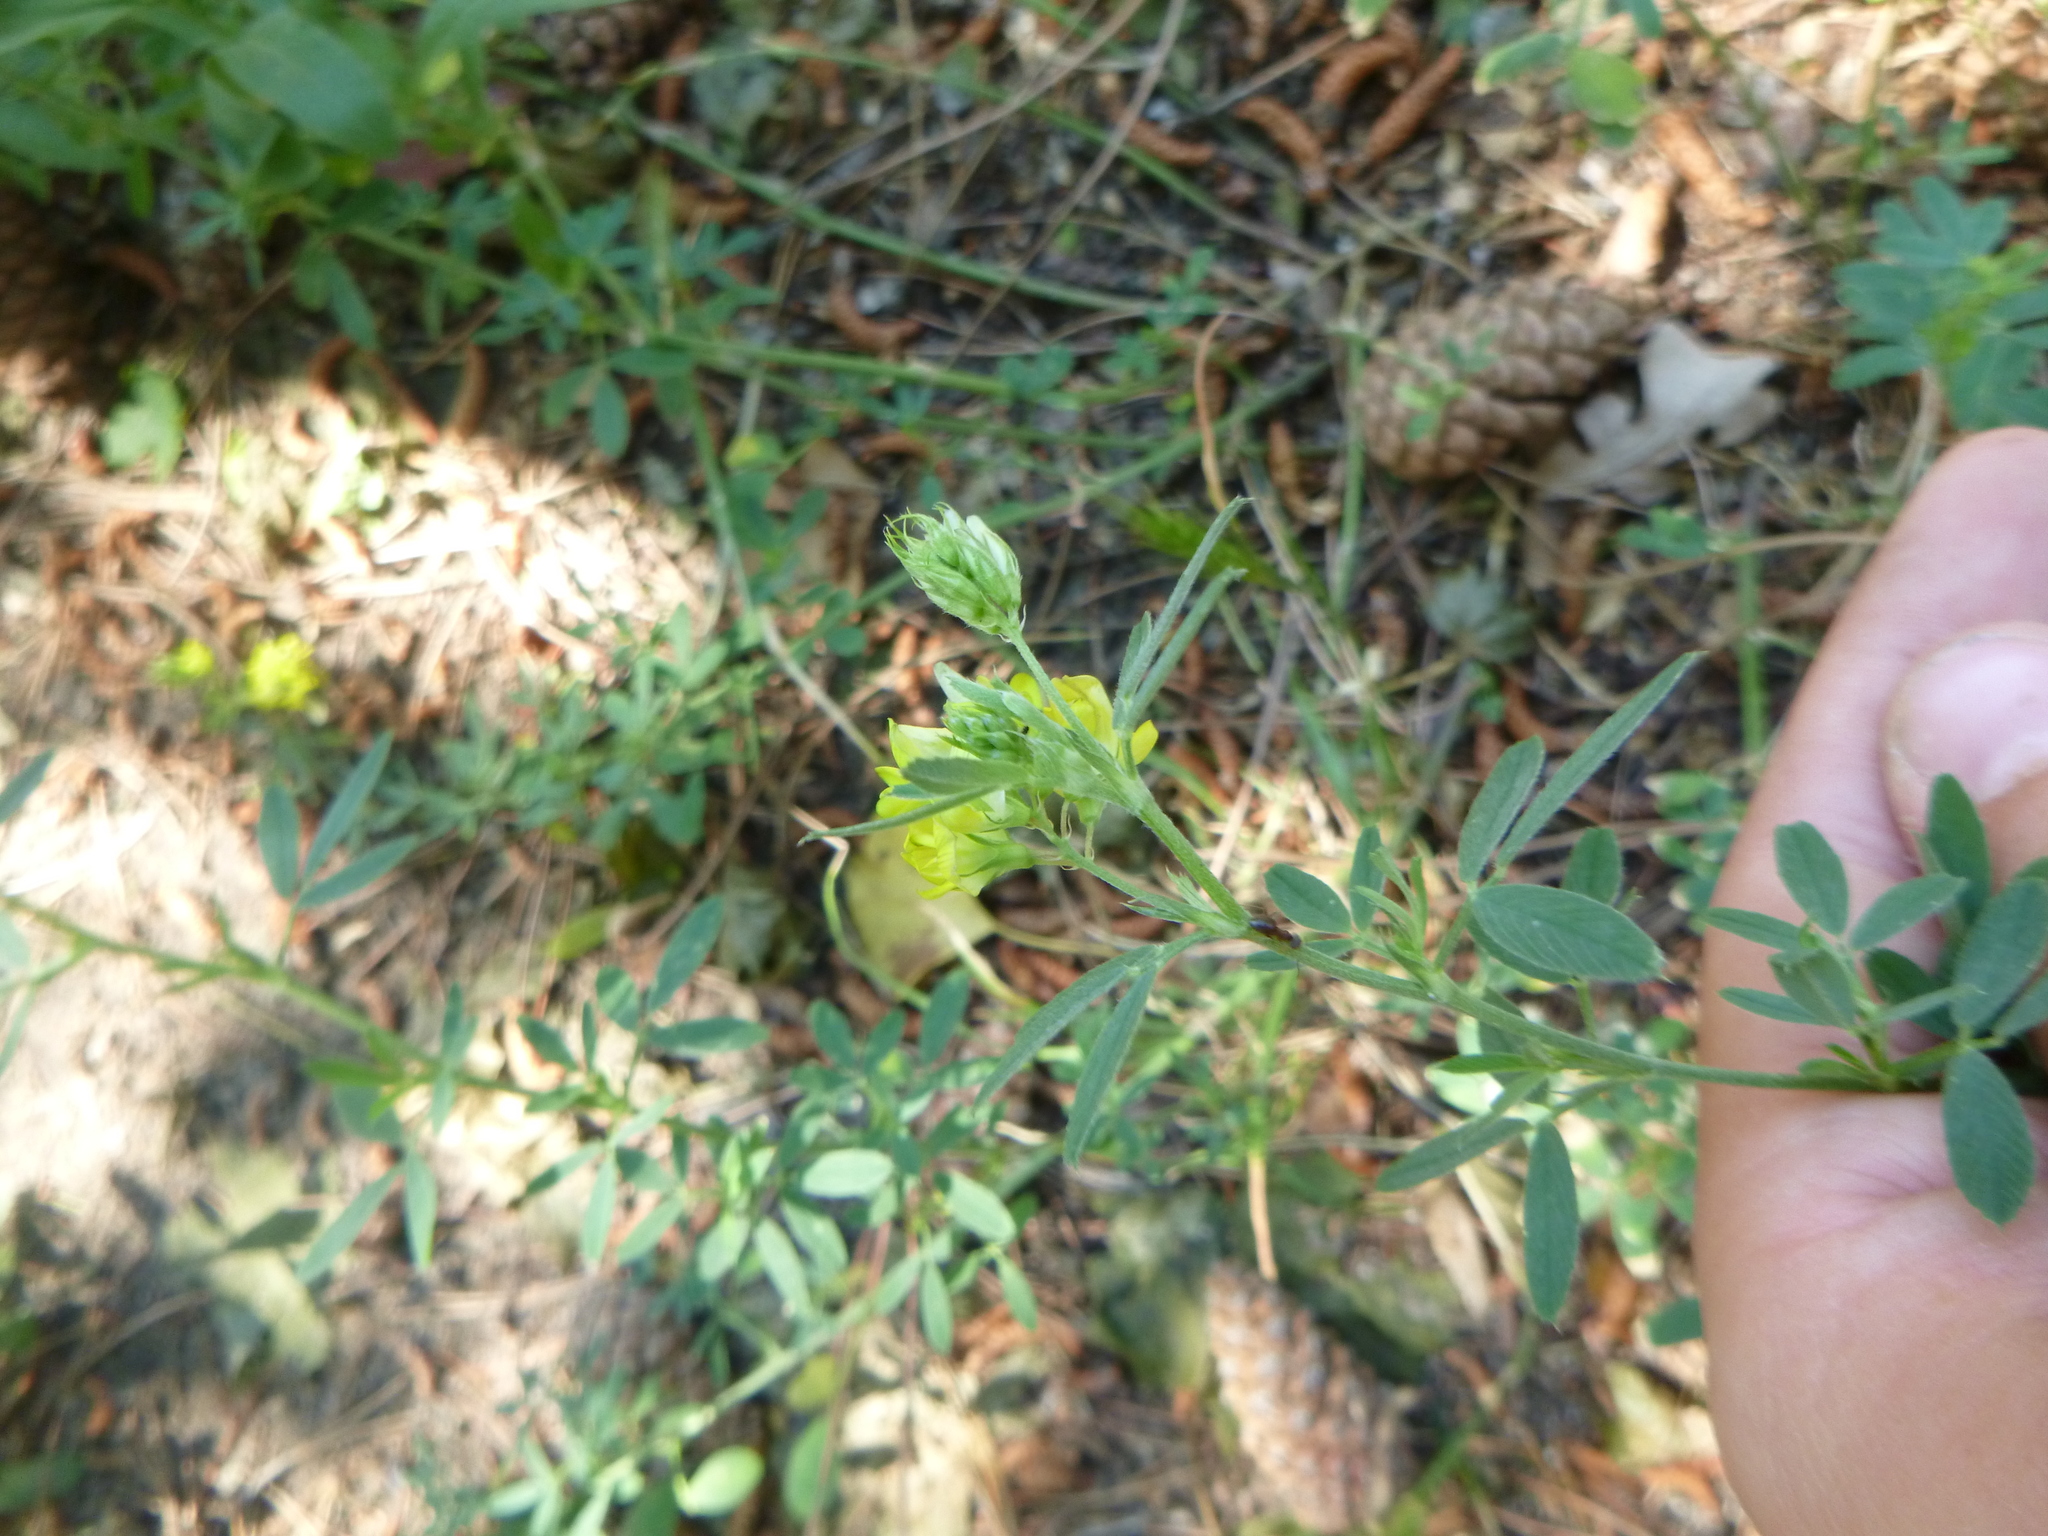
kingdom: Plantae
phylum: Tracheophyta
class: Magnoliopsida
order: Fabales
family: Fabaceae
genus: Medicago
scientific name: Medicago falcata
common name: Sickle medick
